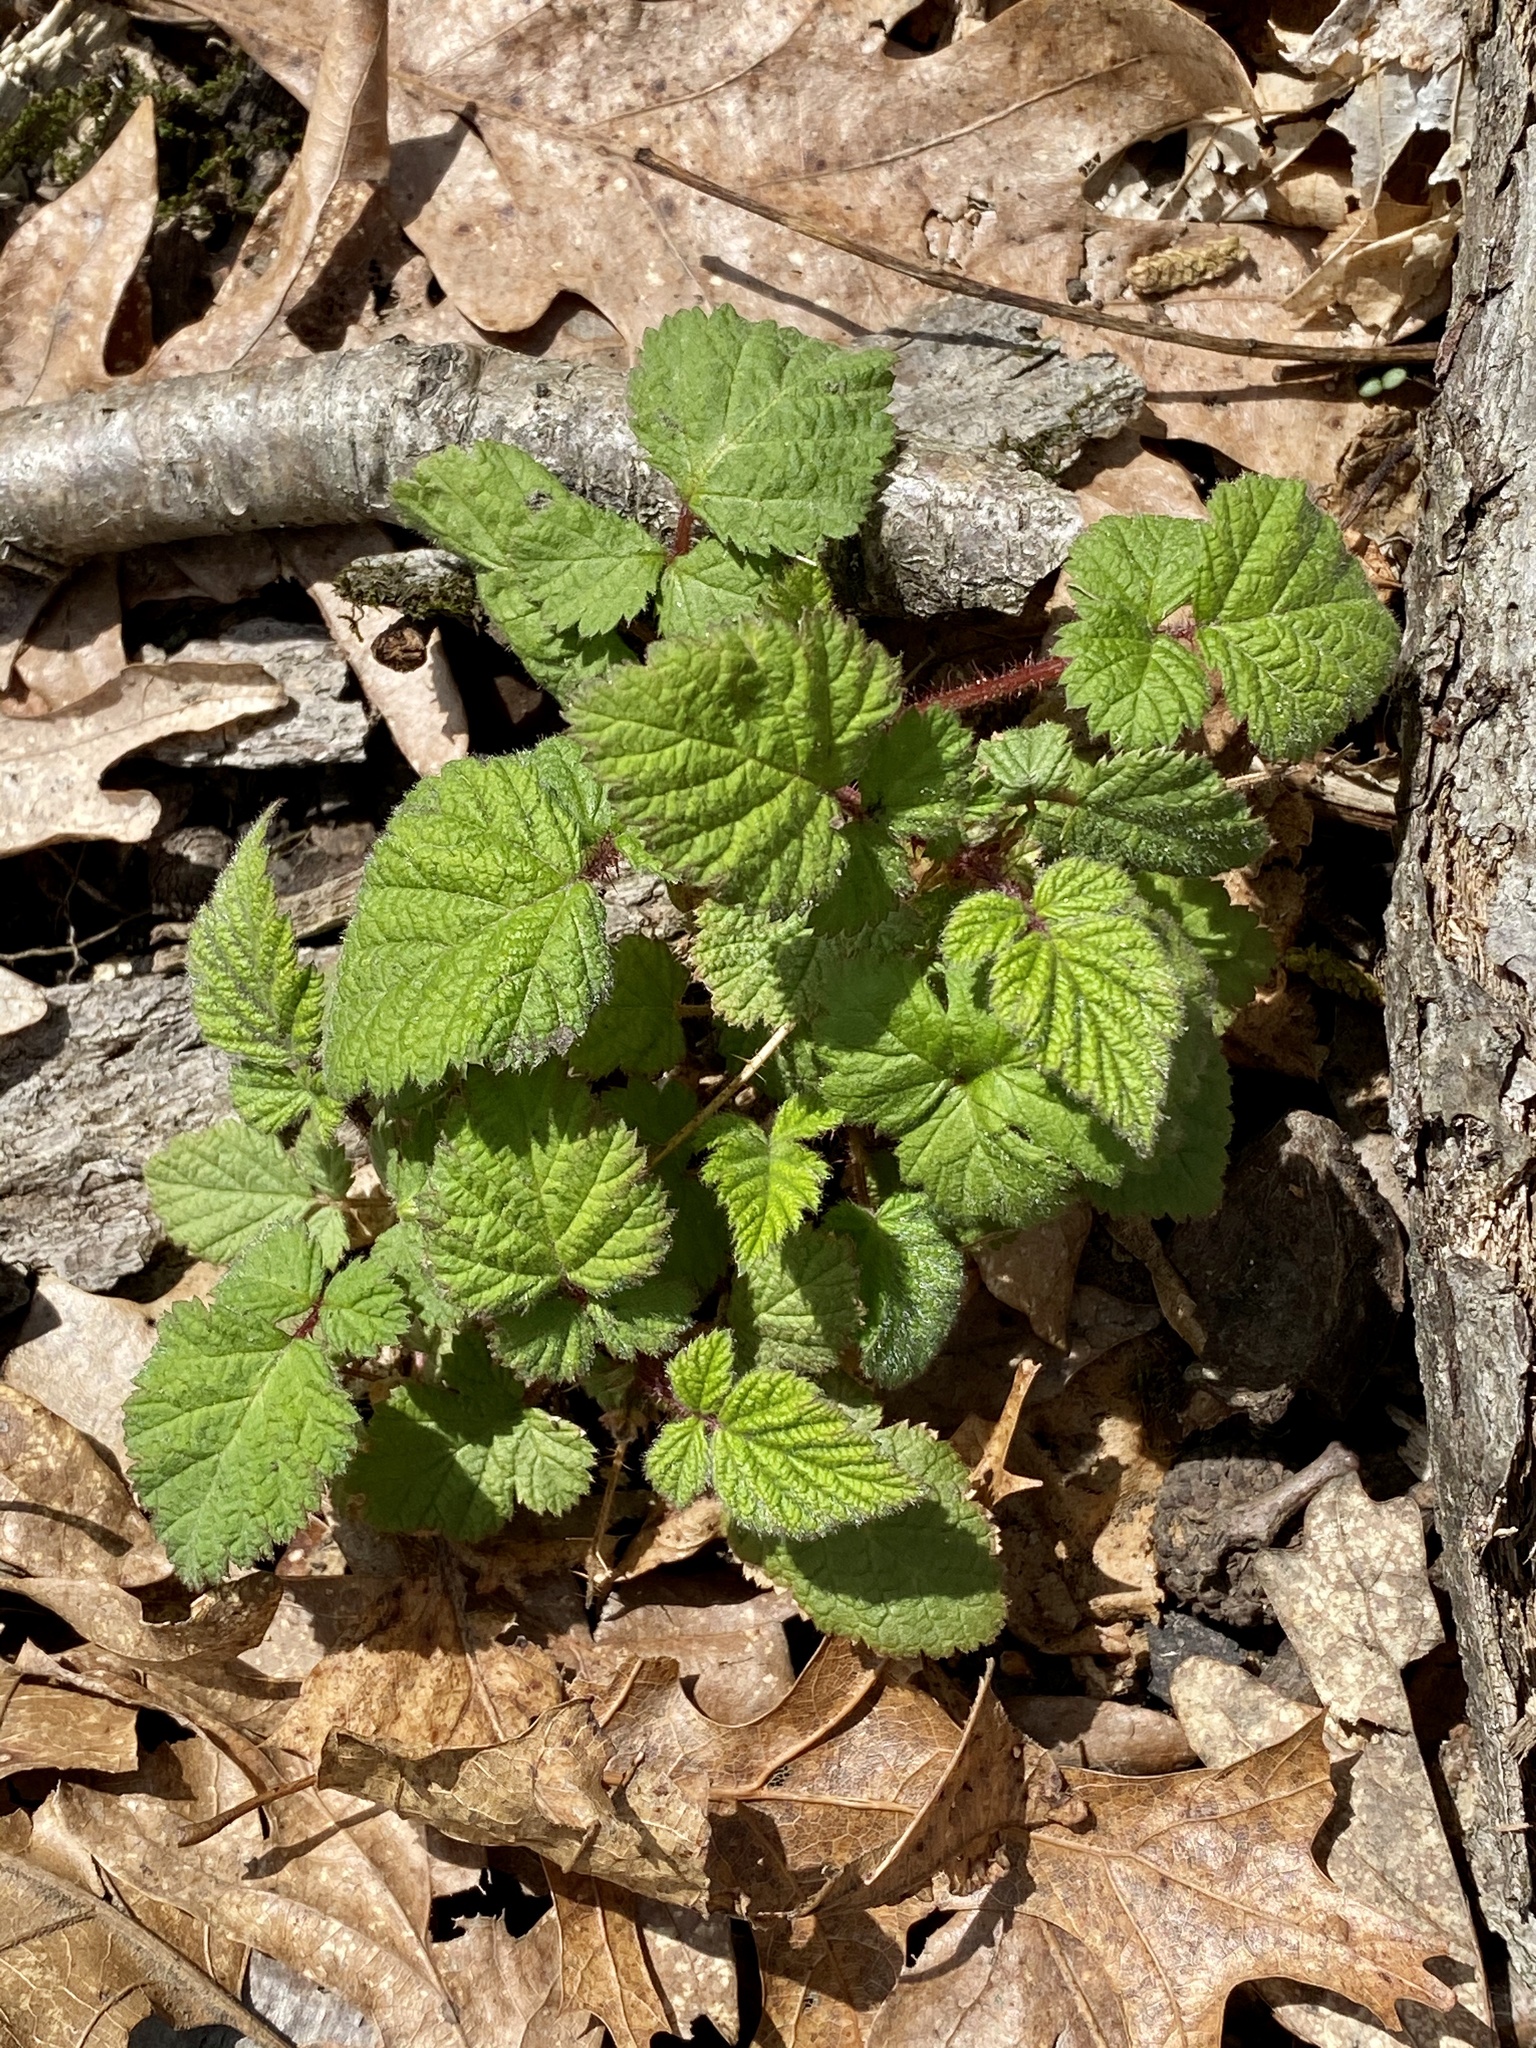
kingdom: Plantae
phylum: Tracheophyta
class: Magnoliopsida
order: Rosales
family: Rosaceae
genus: Rubus
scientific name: Rubus phoenicolasius
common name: Japanese wineberry
